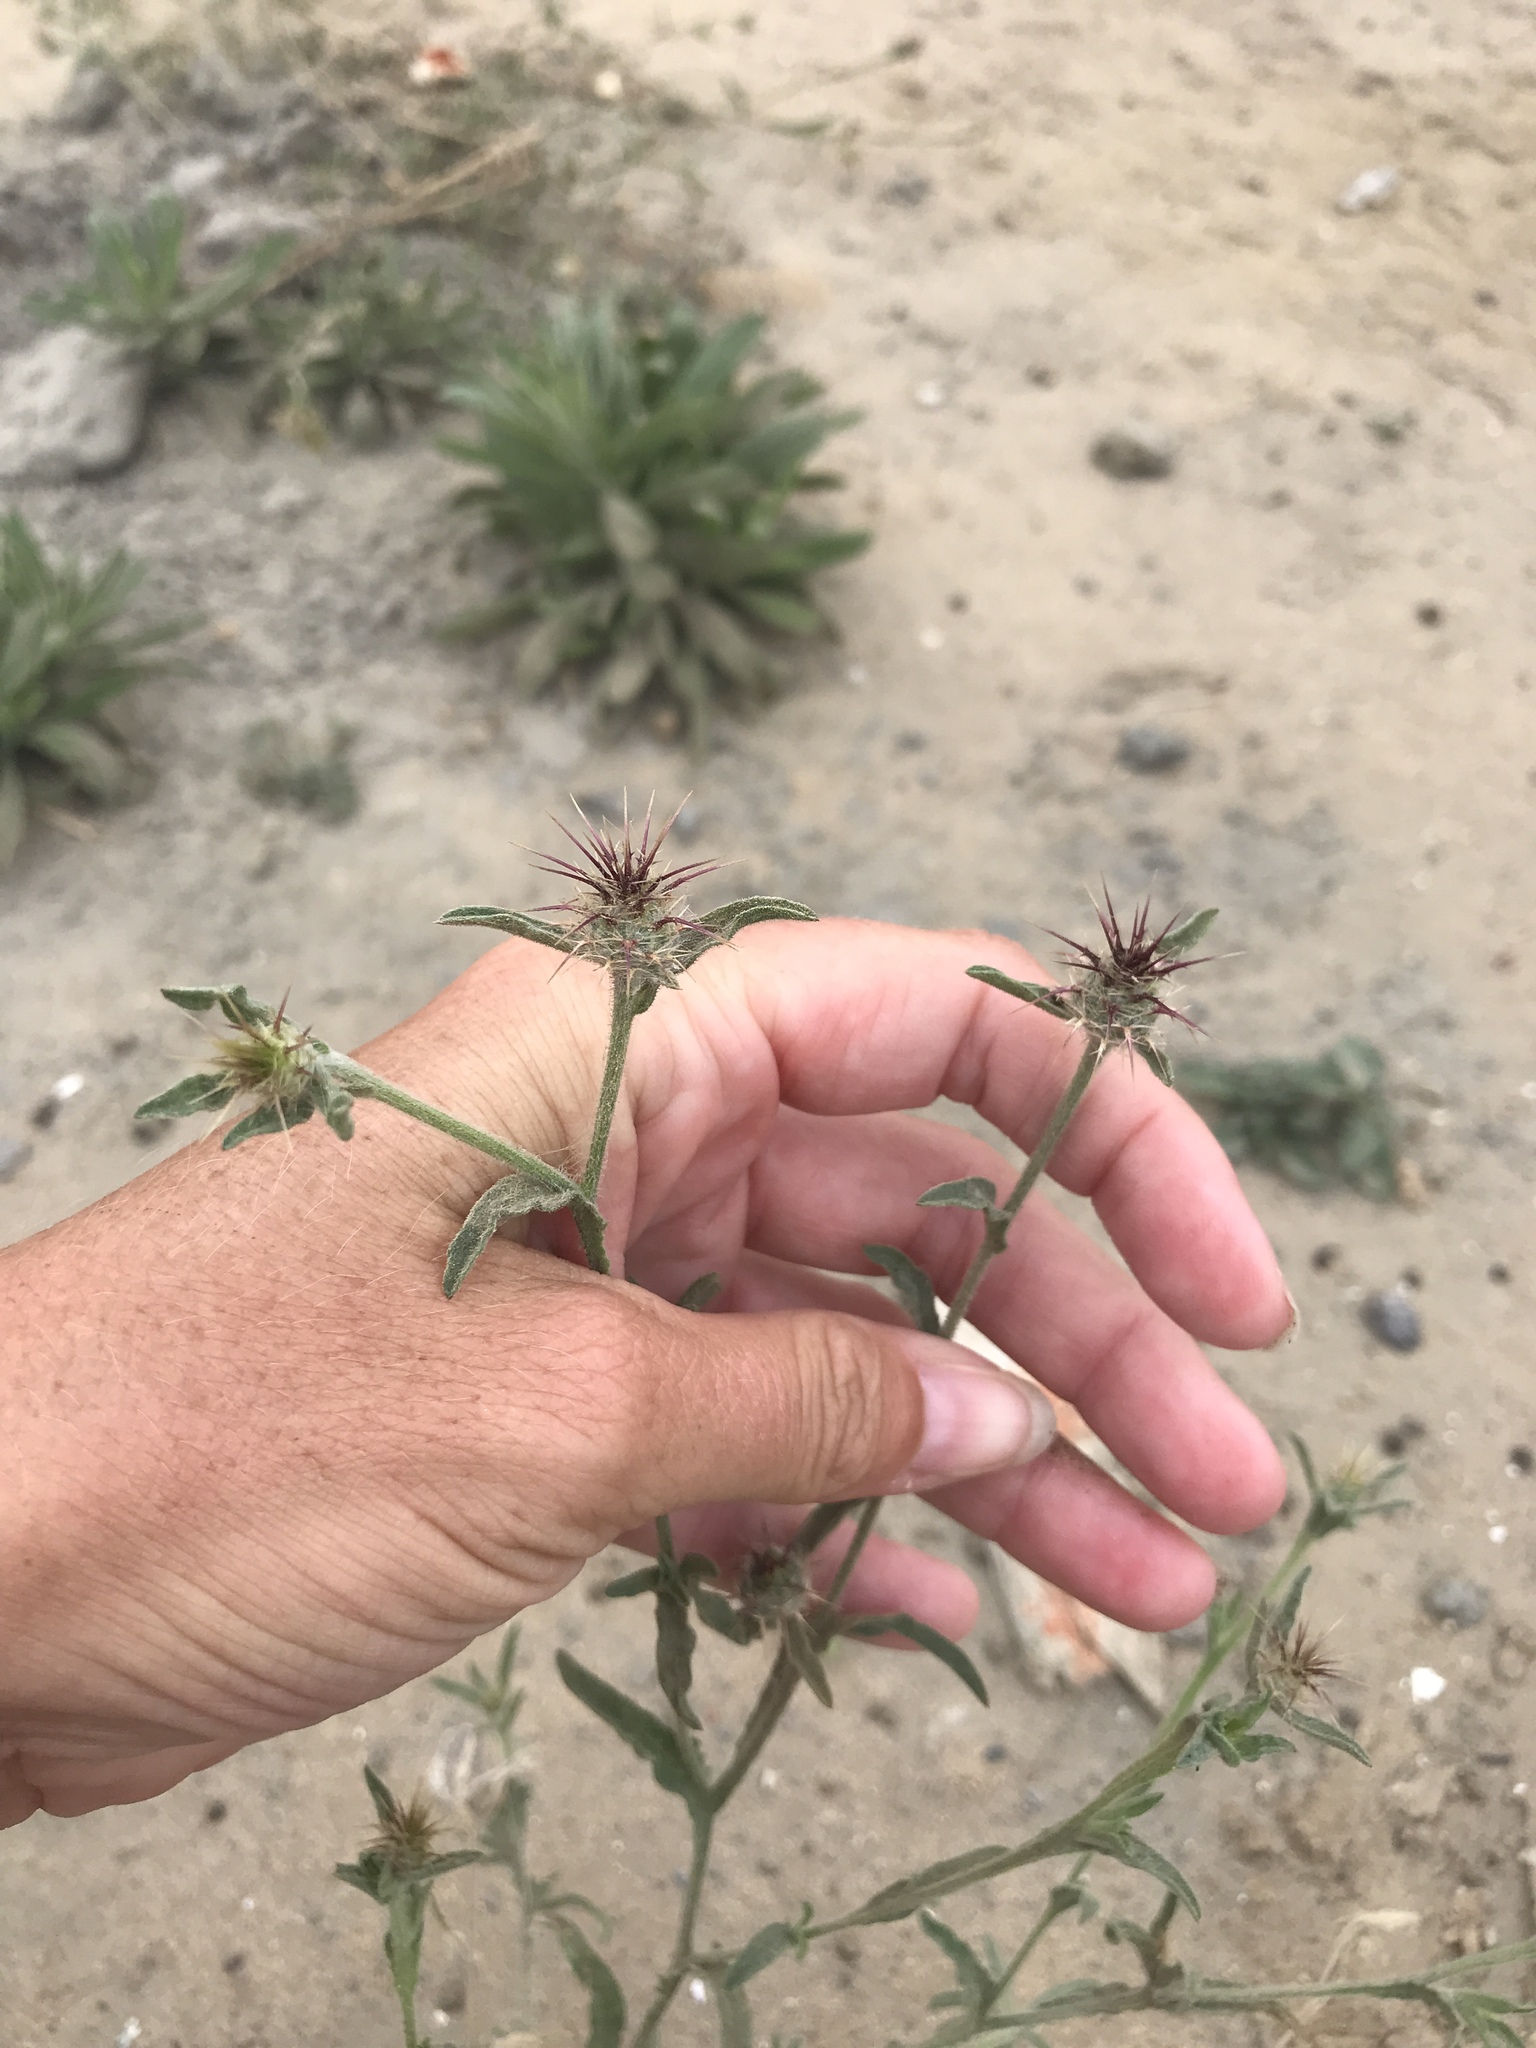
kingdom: Plantae
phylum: Tracheophyta
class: Magnoliopsida
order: Asterales
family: Asteraceae
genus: Centaurea
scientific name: Centaurea melitensis
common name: Maltese star-thistle
